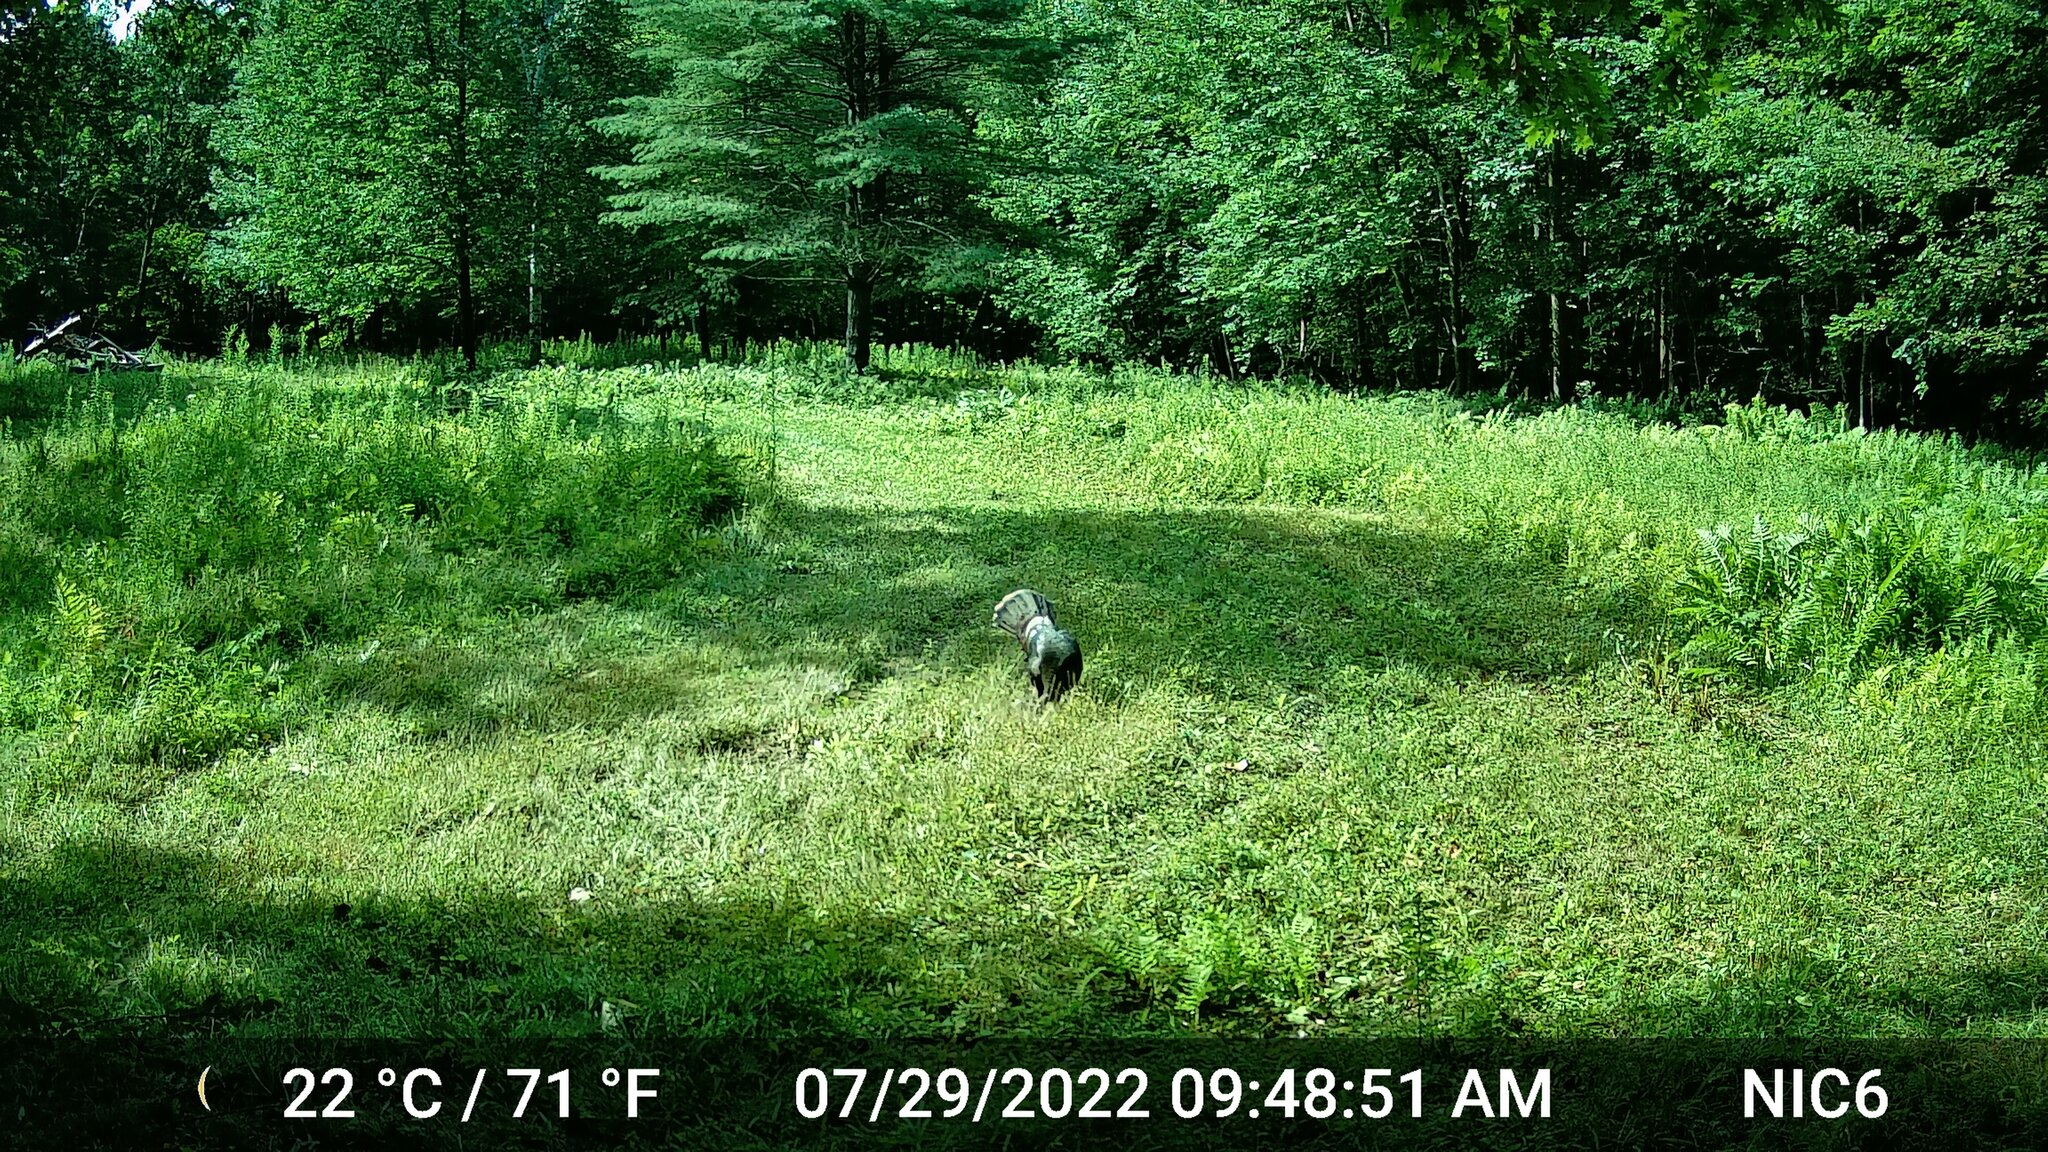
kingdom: Animalia
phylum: Chordata
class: Aves
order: Galliformes
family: Phasianidae
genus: Meleagris
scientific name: Meleagris gallopavo
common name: Wild turkey
